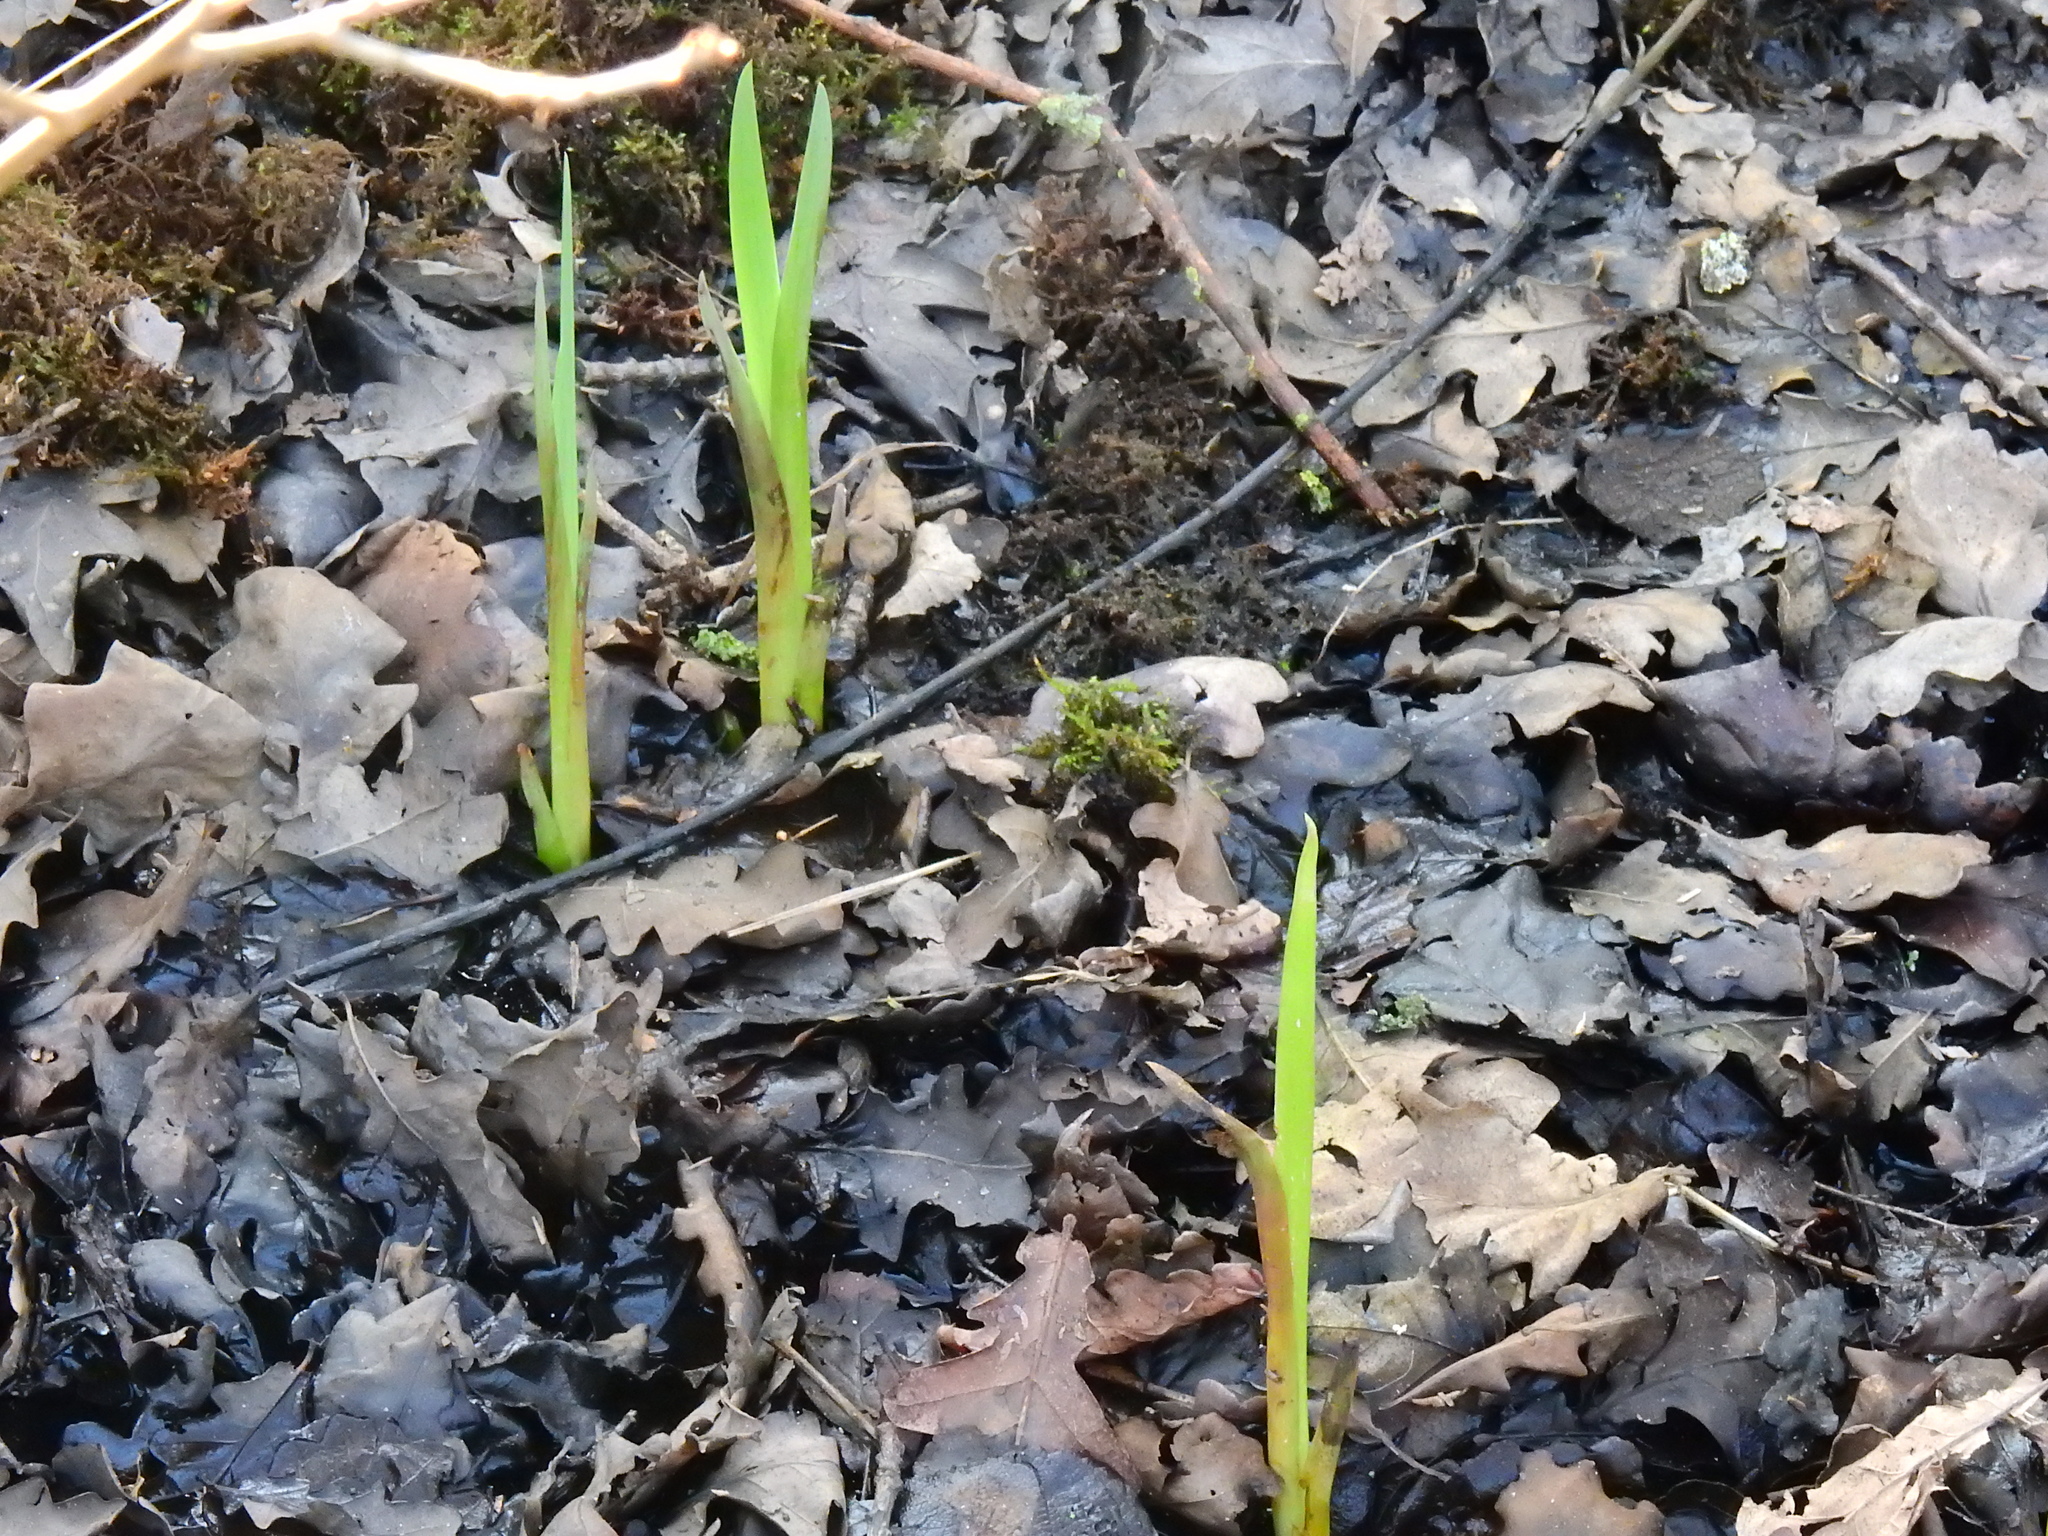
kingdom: Plantae
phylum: Tracheophyta
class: Liliopsida
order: Asparagales
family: Iridaceae
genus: Iris
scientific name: Iris pseudacorus
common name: Yellow flag
